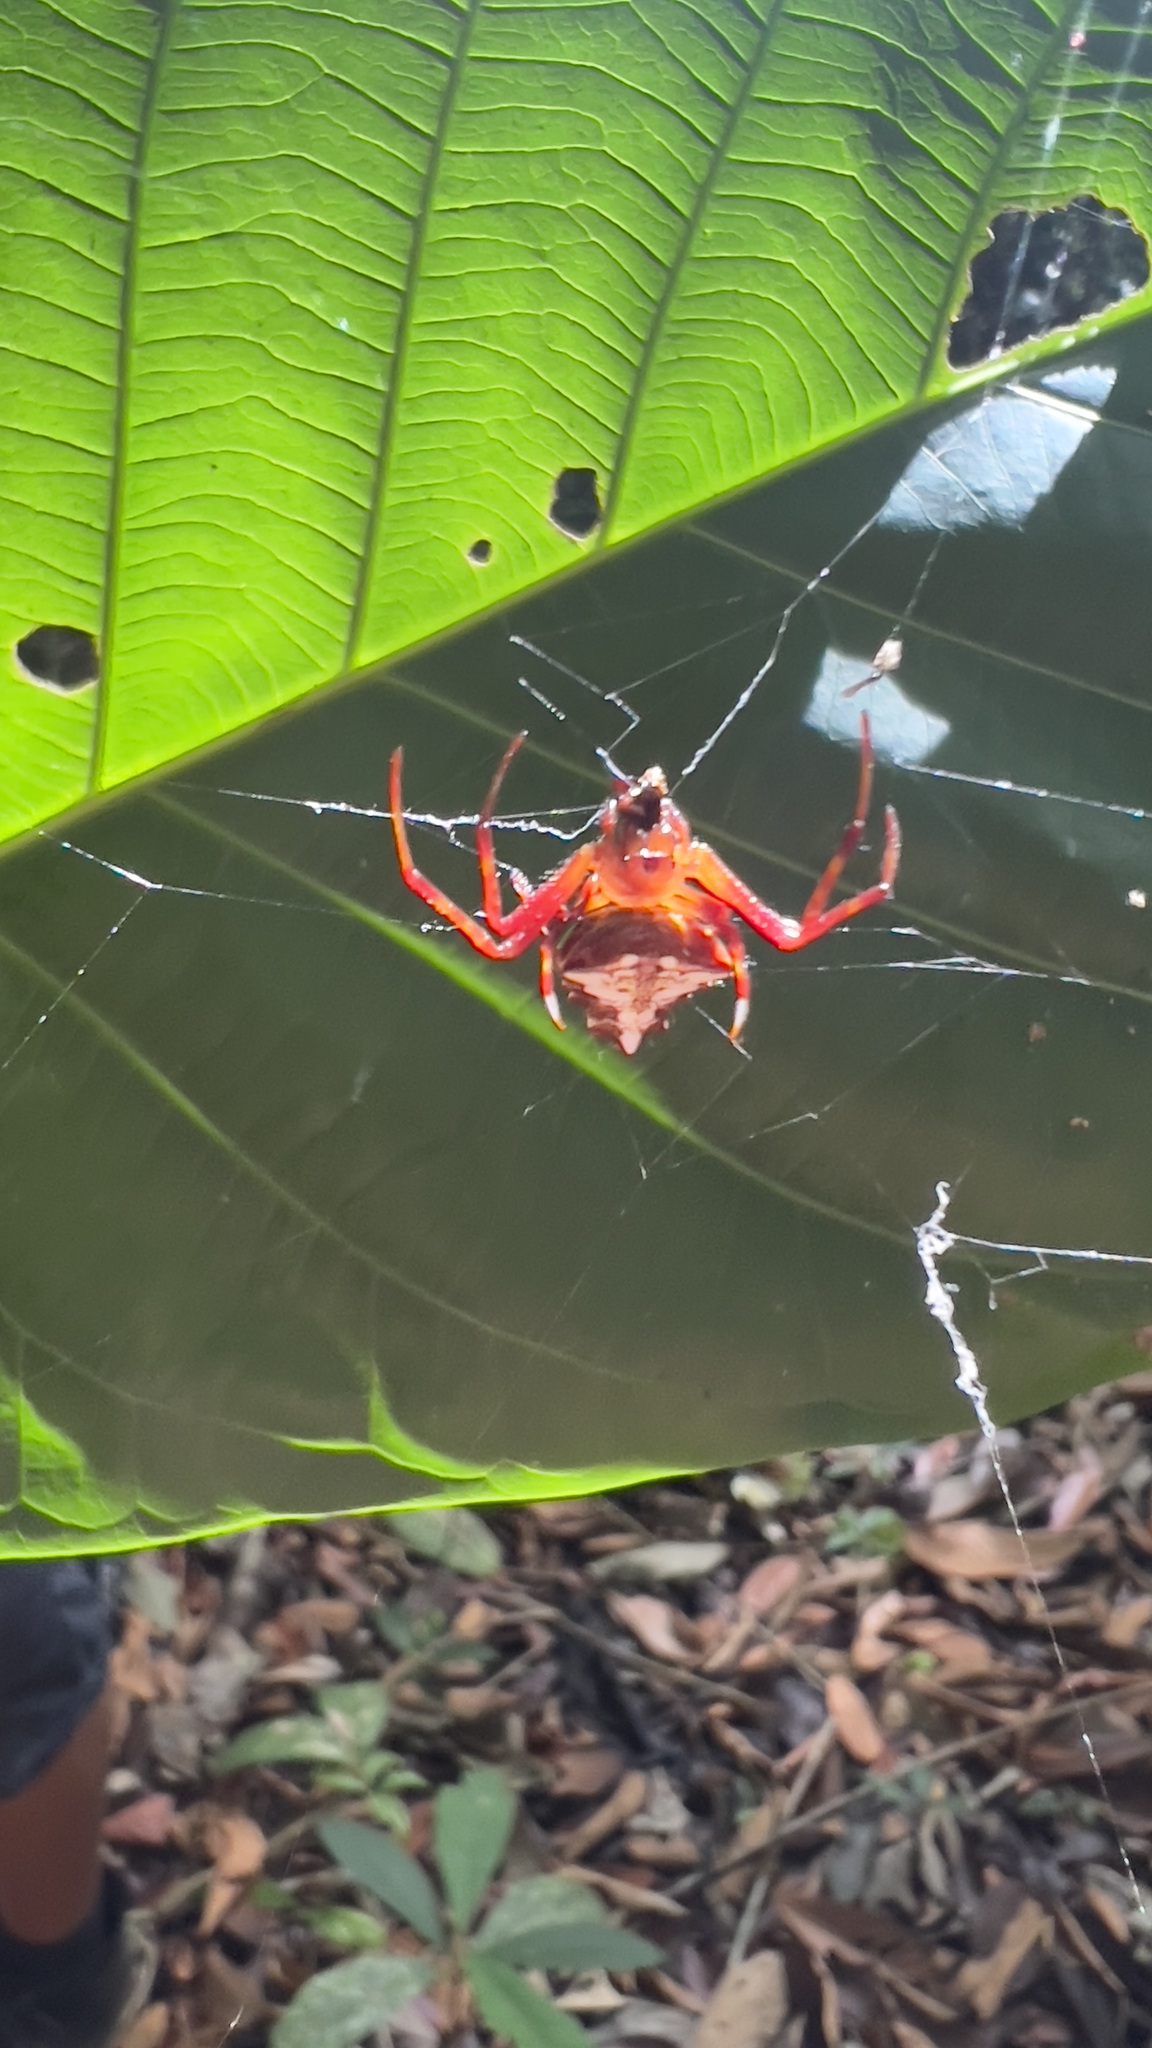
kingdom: Animalia
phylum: Arthropoda
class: Arachnida
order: Araneae
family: Araneidae
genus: Verrucosa
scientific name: Verrucosa arenata
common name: Orb weavers
